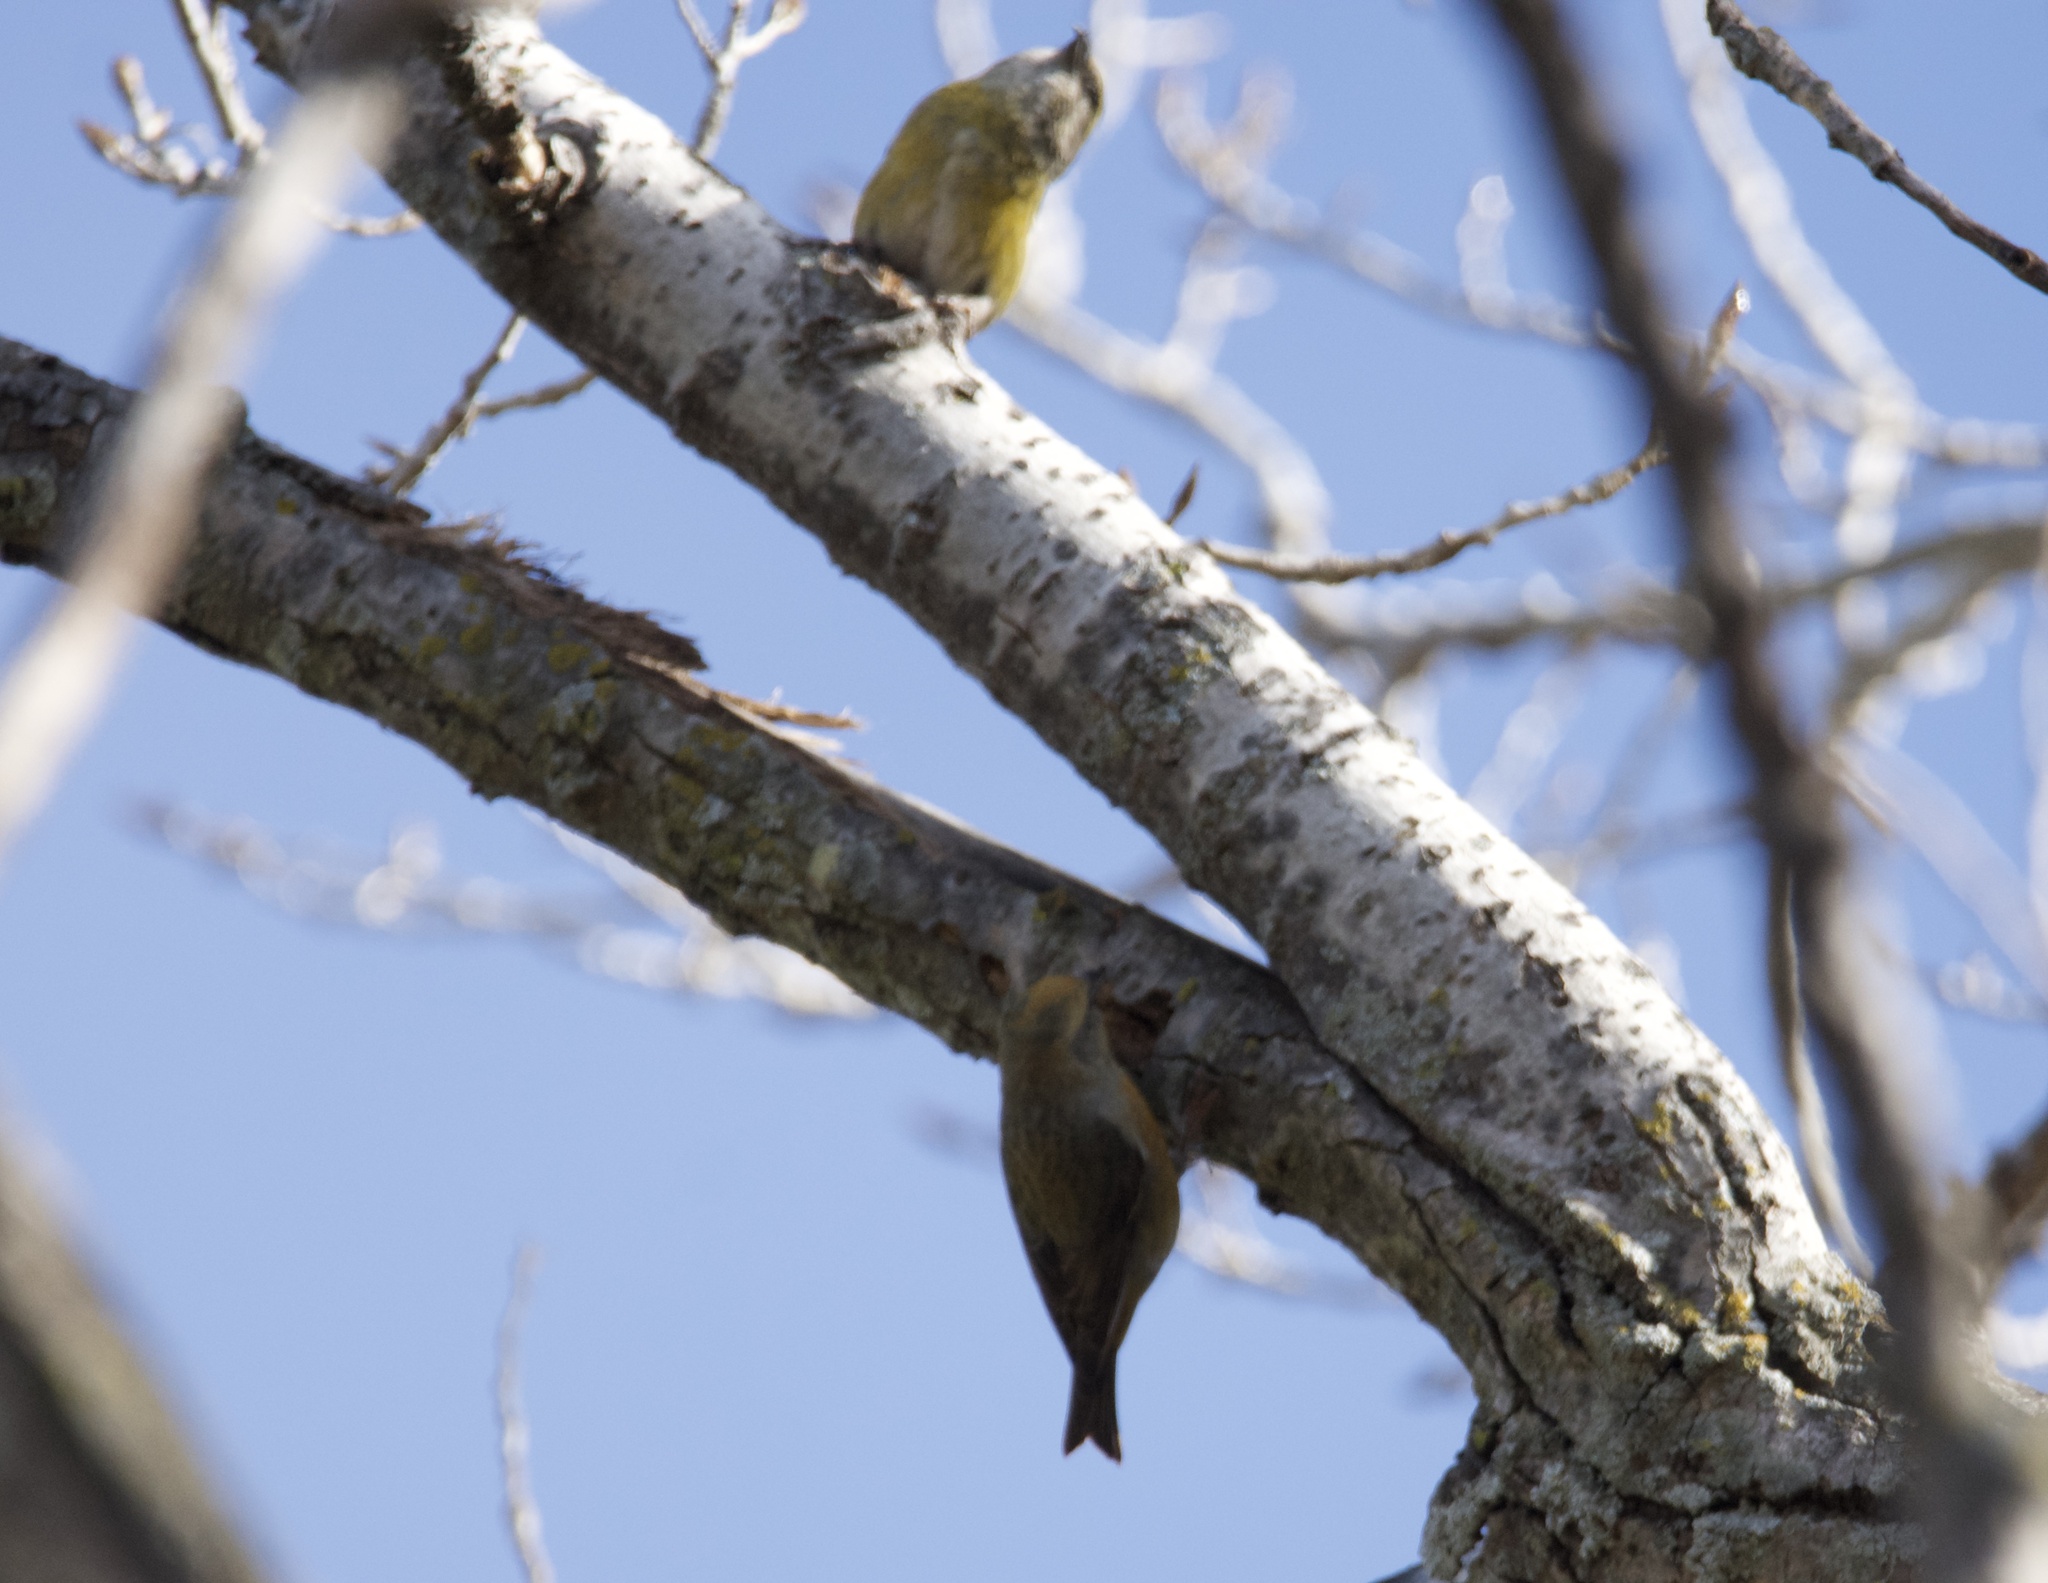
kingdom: Animalia
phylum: Chordata
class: Aves
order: Passeriformes
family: Fringillidae
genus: Loxia
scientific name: Loxia curvirostra
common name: Red crossbill
